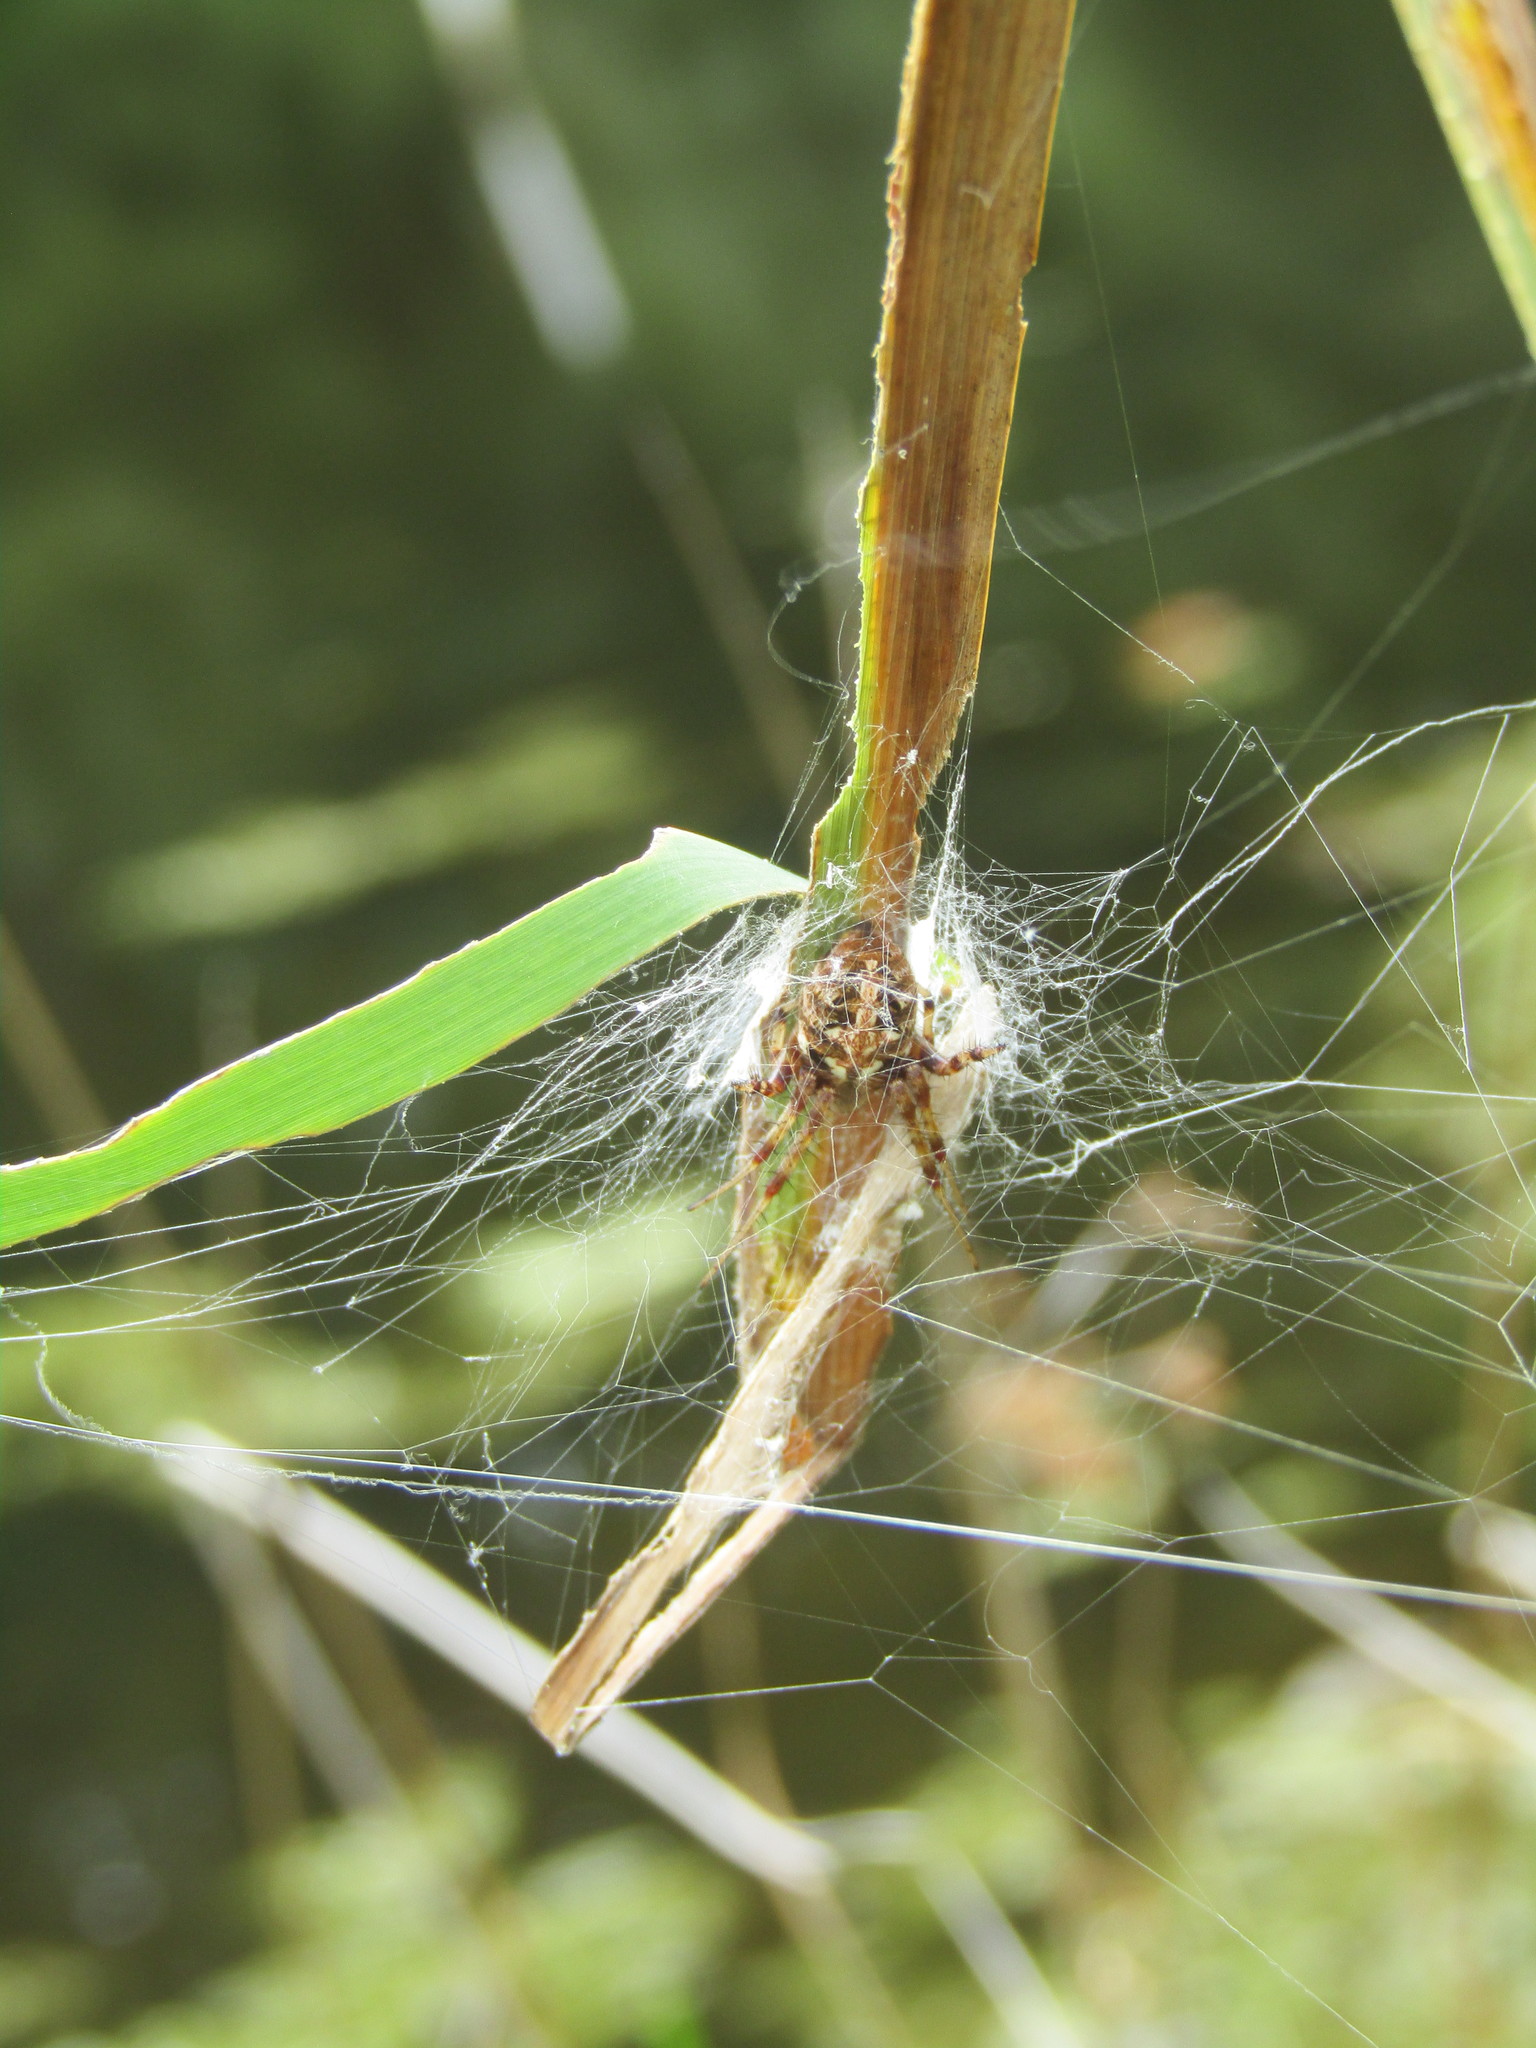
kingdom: Animalia
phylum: Arthropoda
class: Arachnida
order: Araneae
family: Araneidae
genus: Neoscona
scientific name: Neoscona arabesca
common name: Orb weavers
